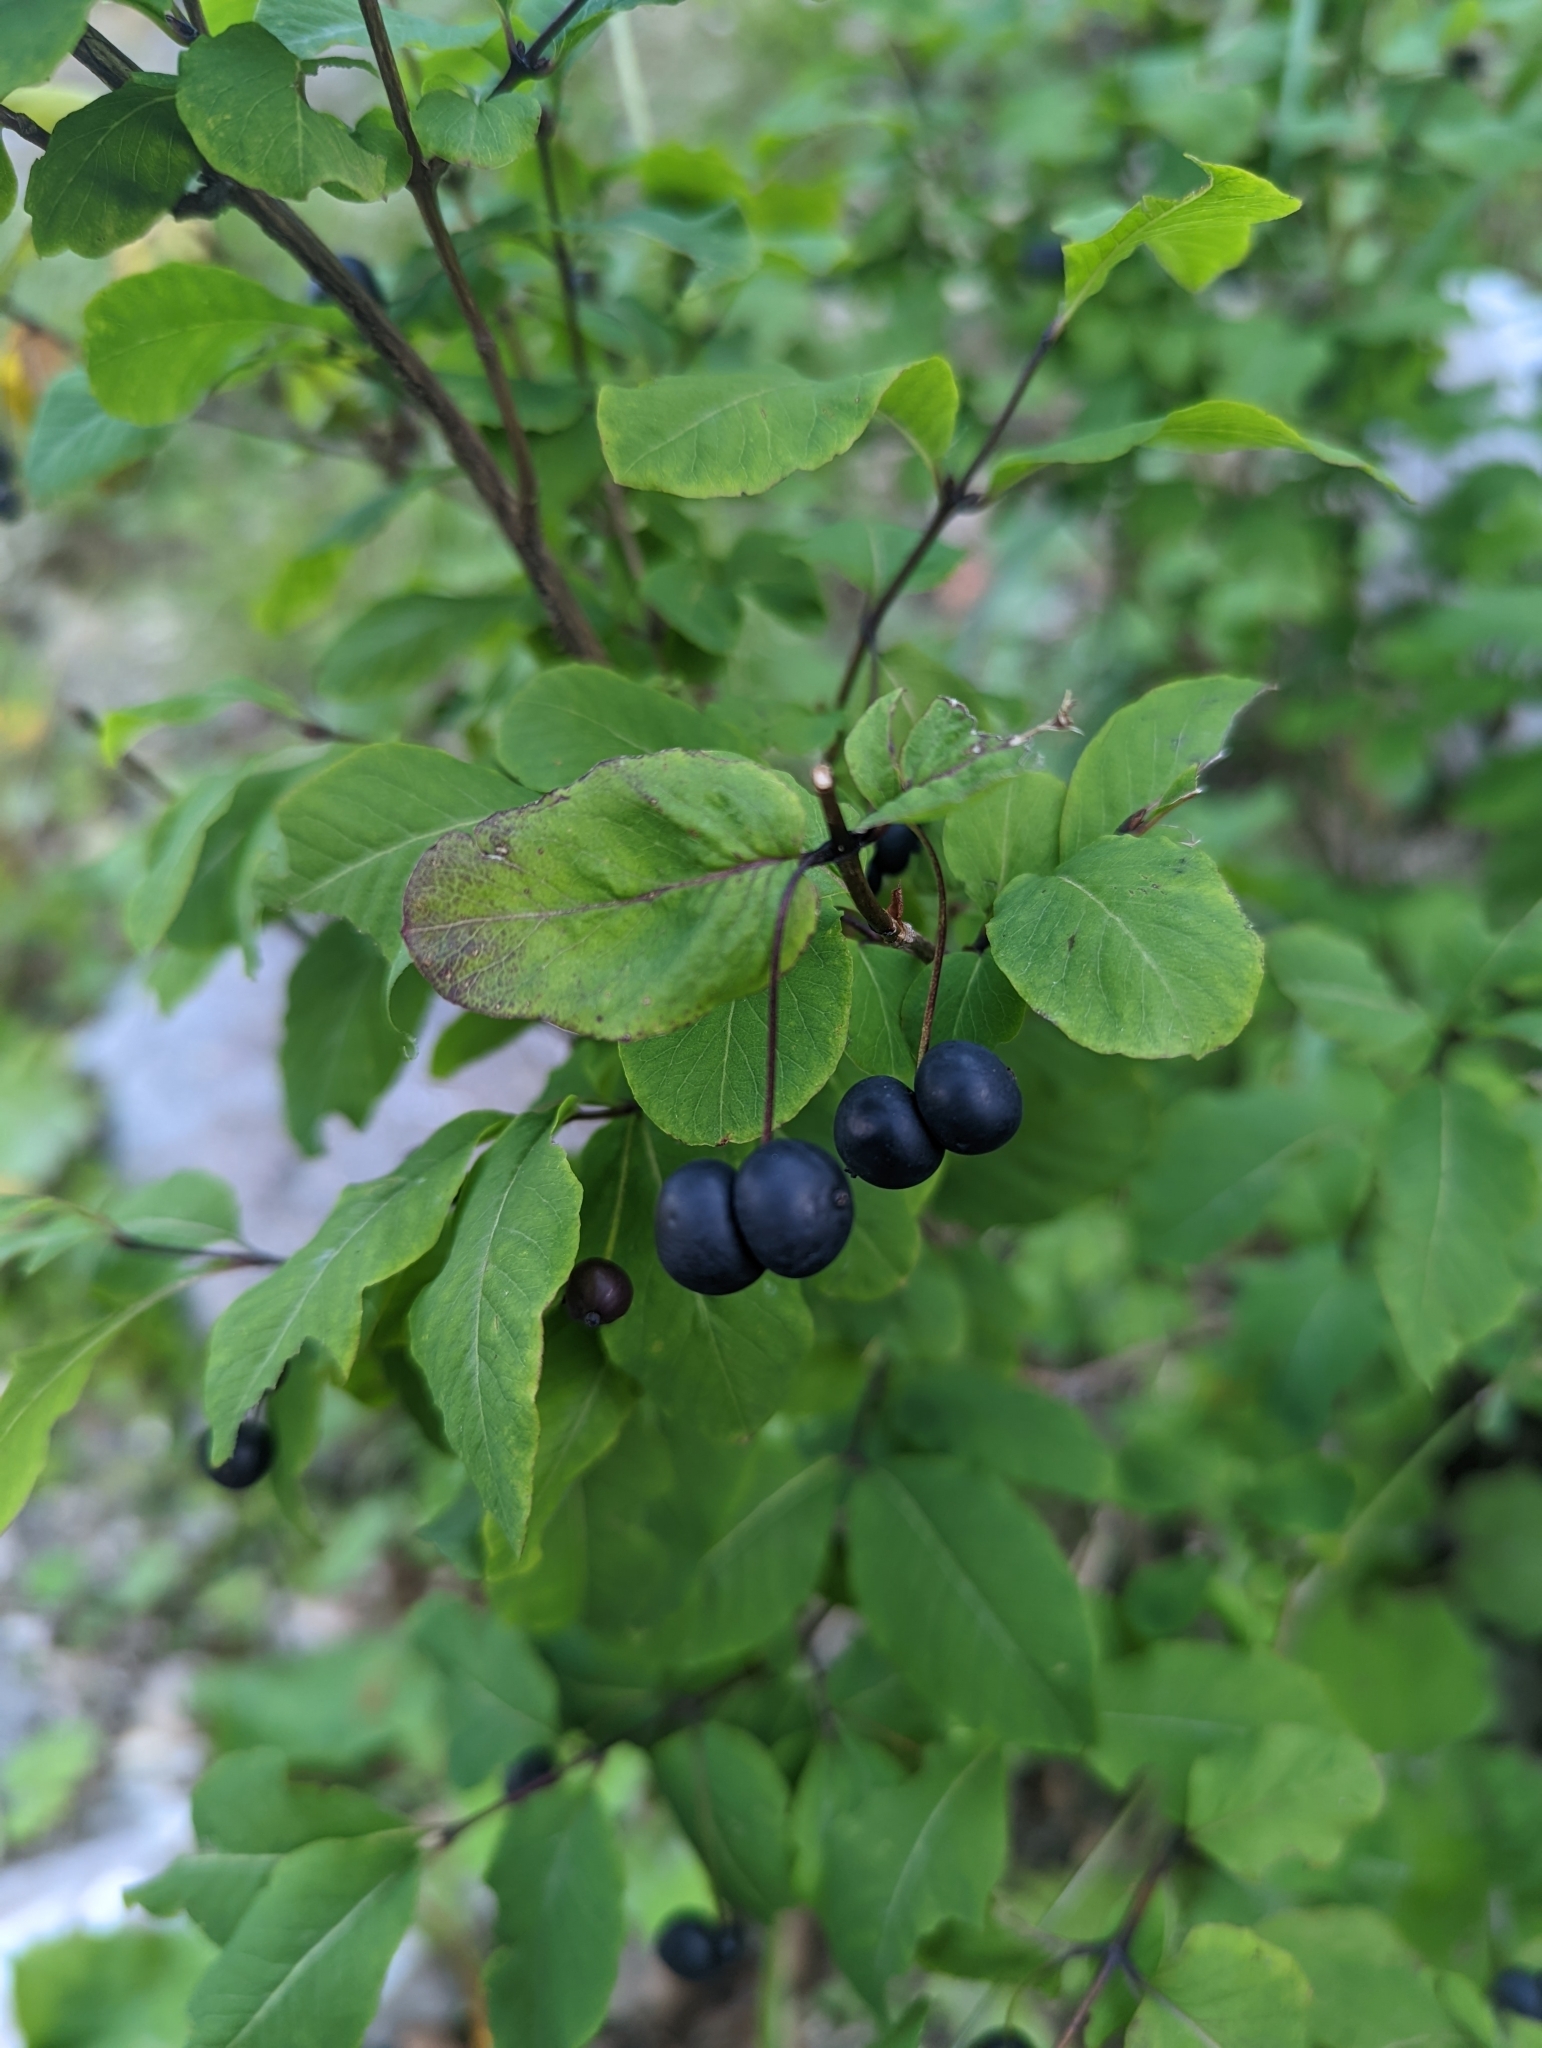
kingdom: Plantae
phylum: Tracheophyta
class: Magnoliopsida
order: Dipsacales
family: Caprifoliaceae
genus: Lonicera
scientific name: Lonicera nigra
